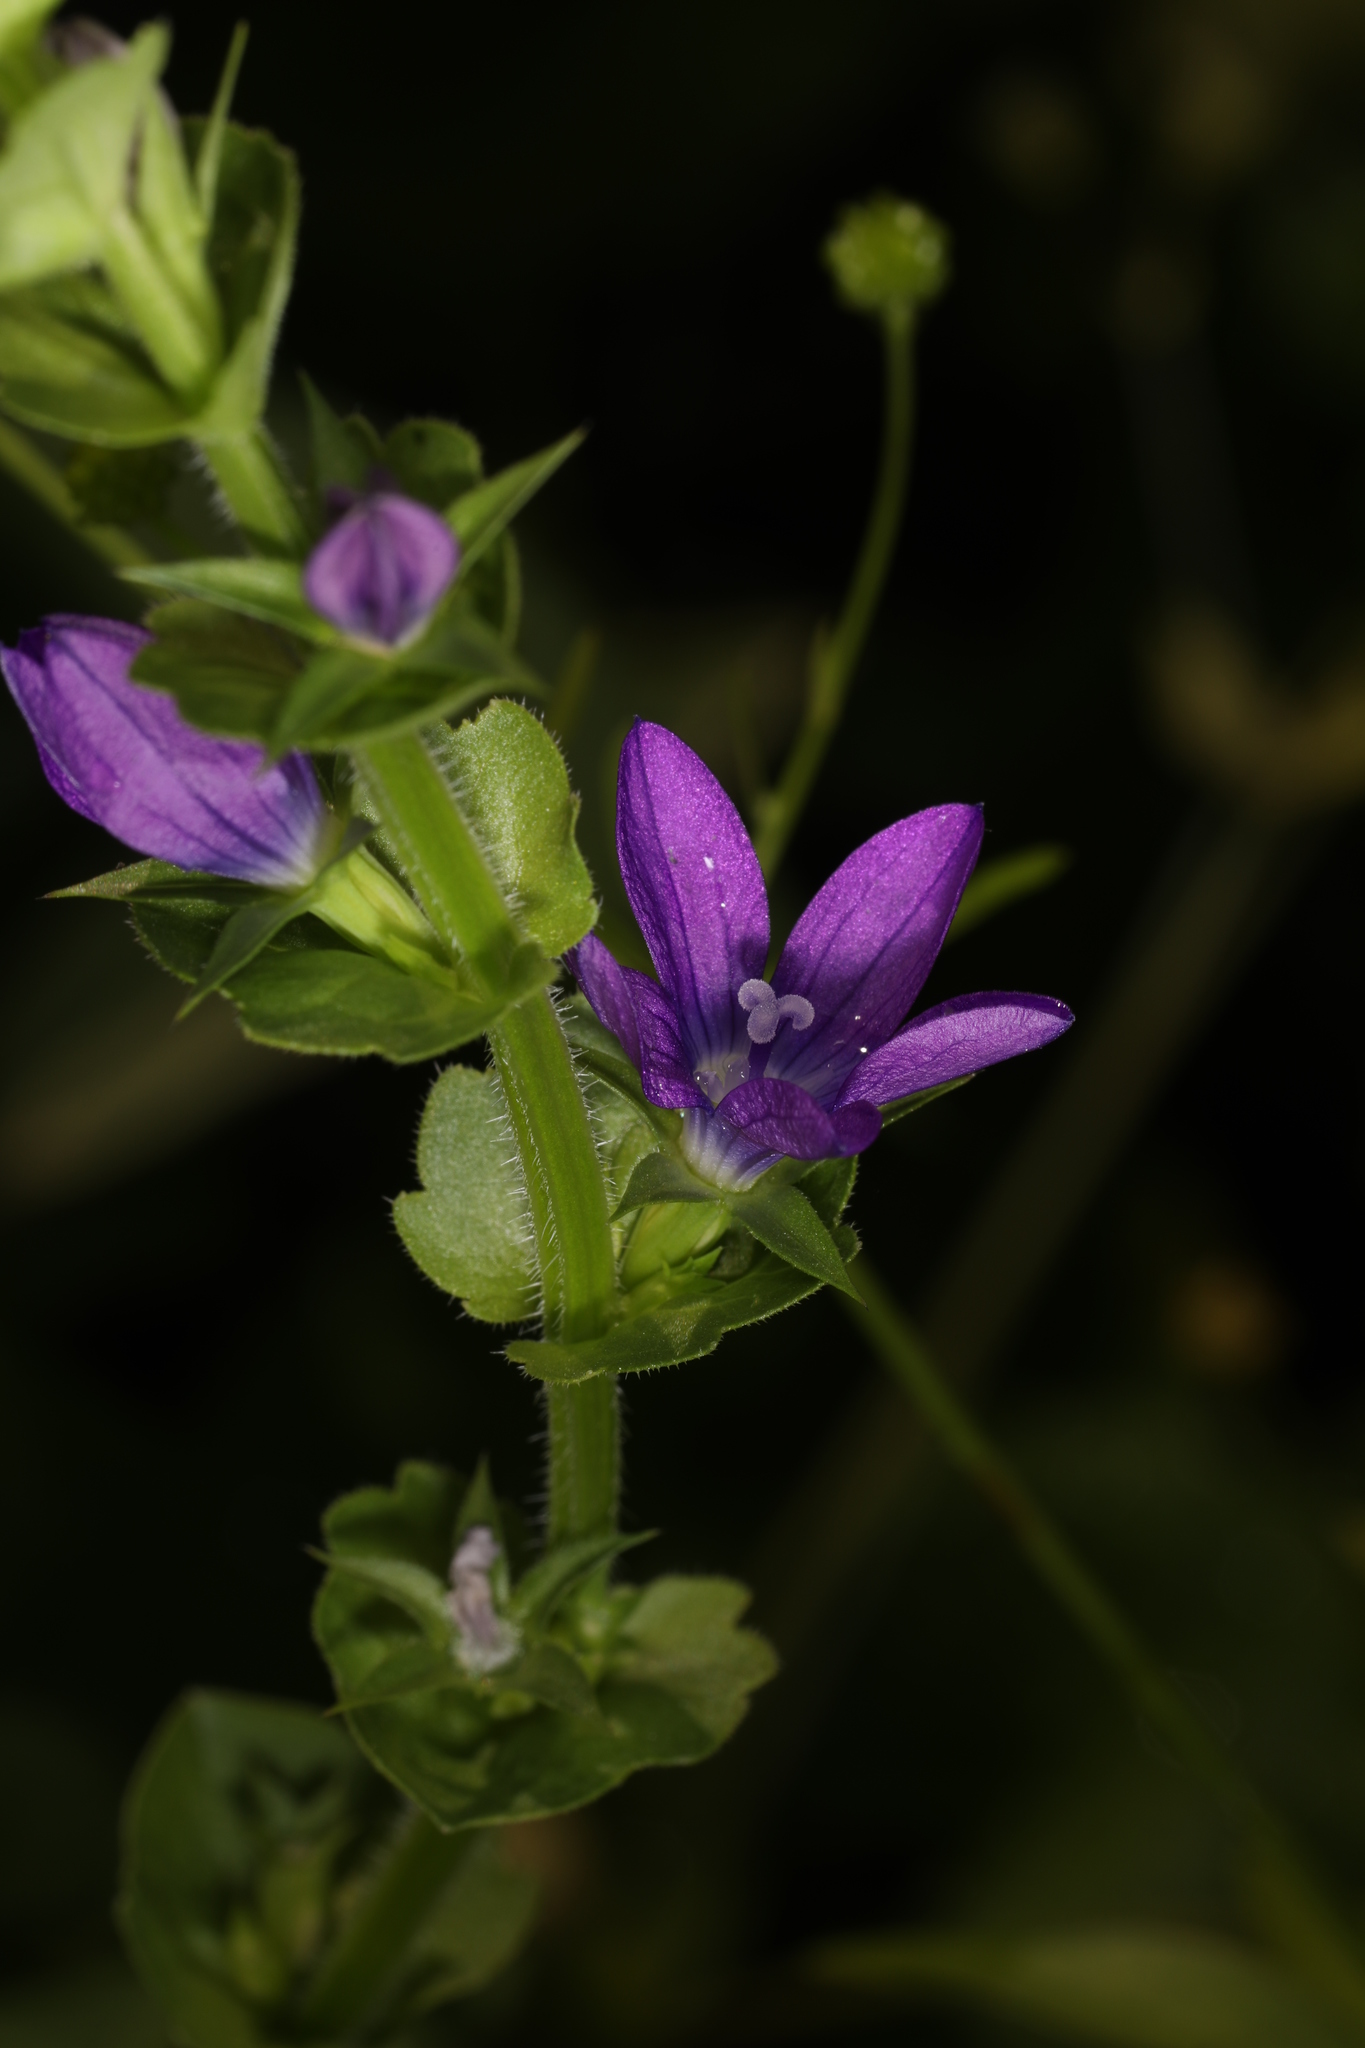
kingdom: Plantae
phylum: Tracheophyta
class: Magnoliopsida
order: Asterales
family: Campanulaceae
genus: Triodanis
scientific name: Triodanis perfoliata
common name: Clasping venus' looking-glass
